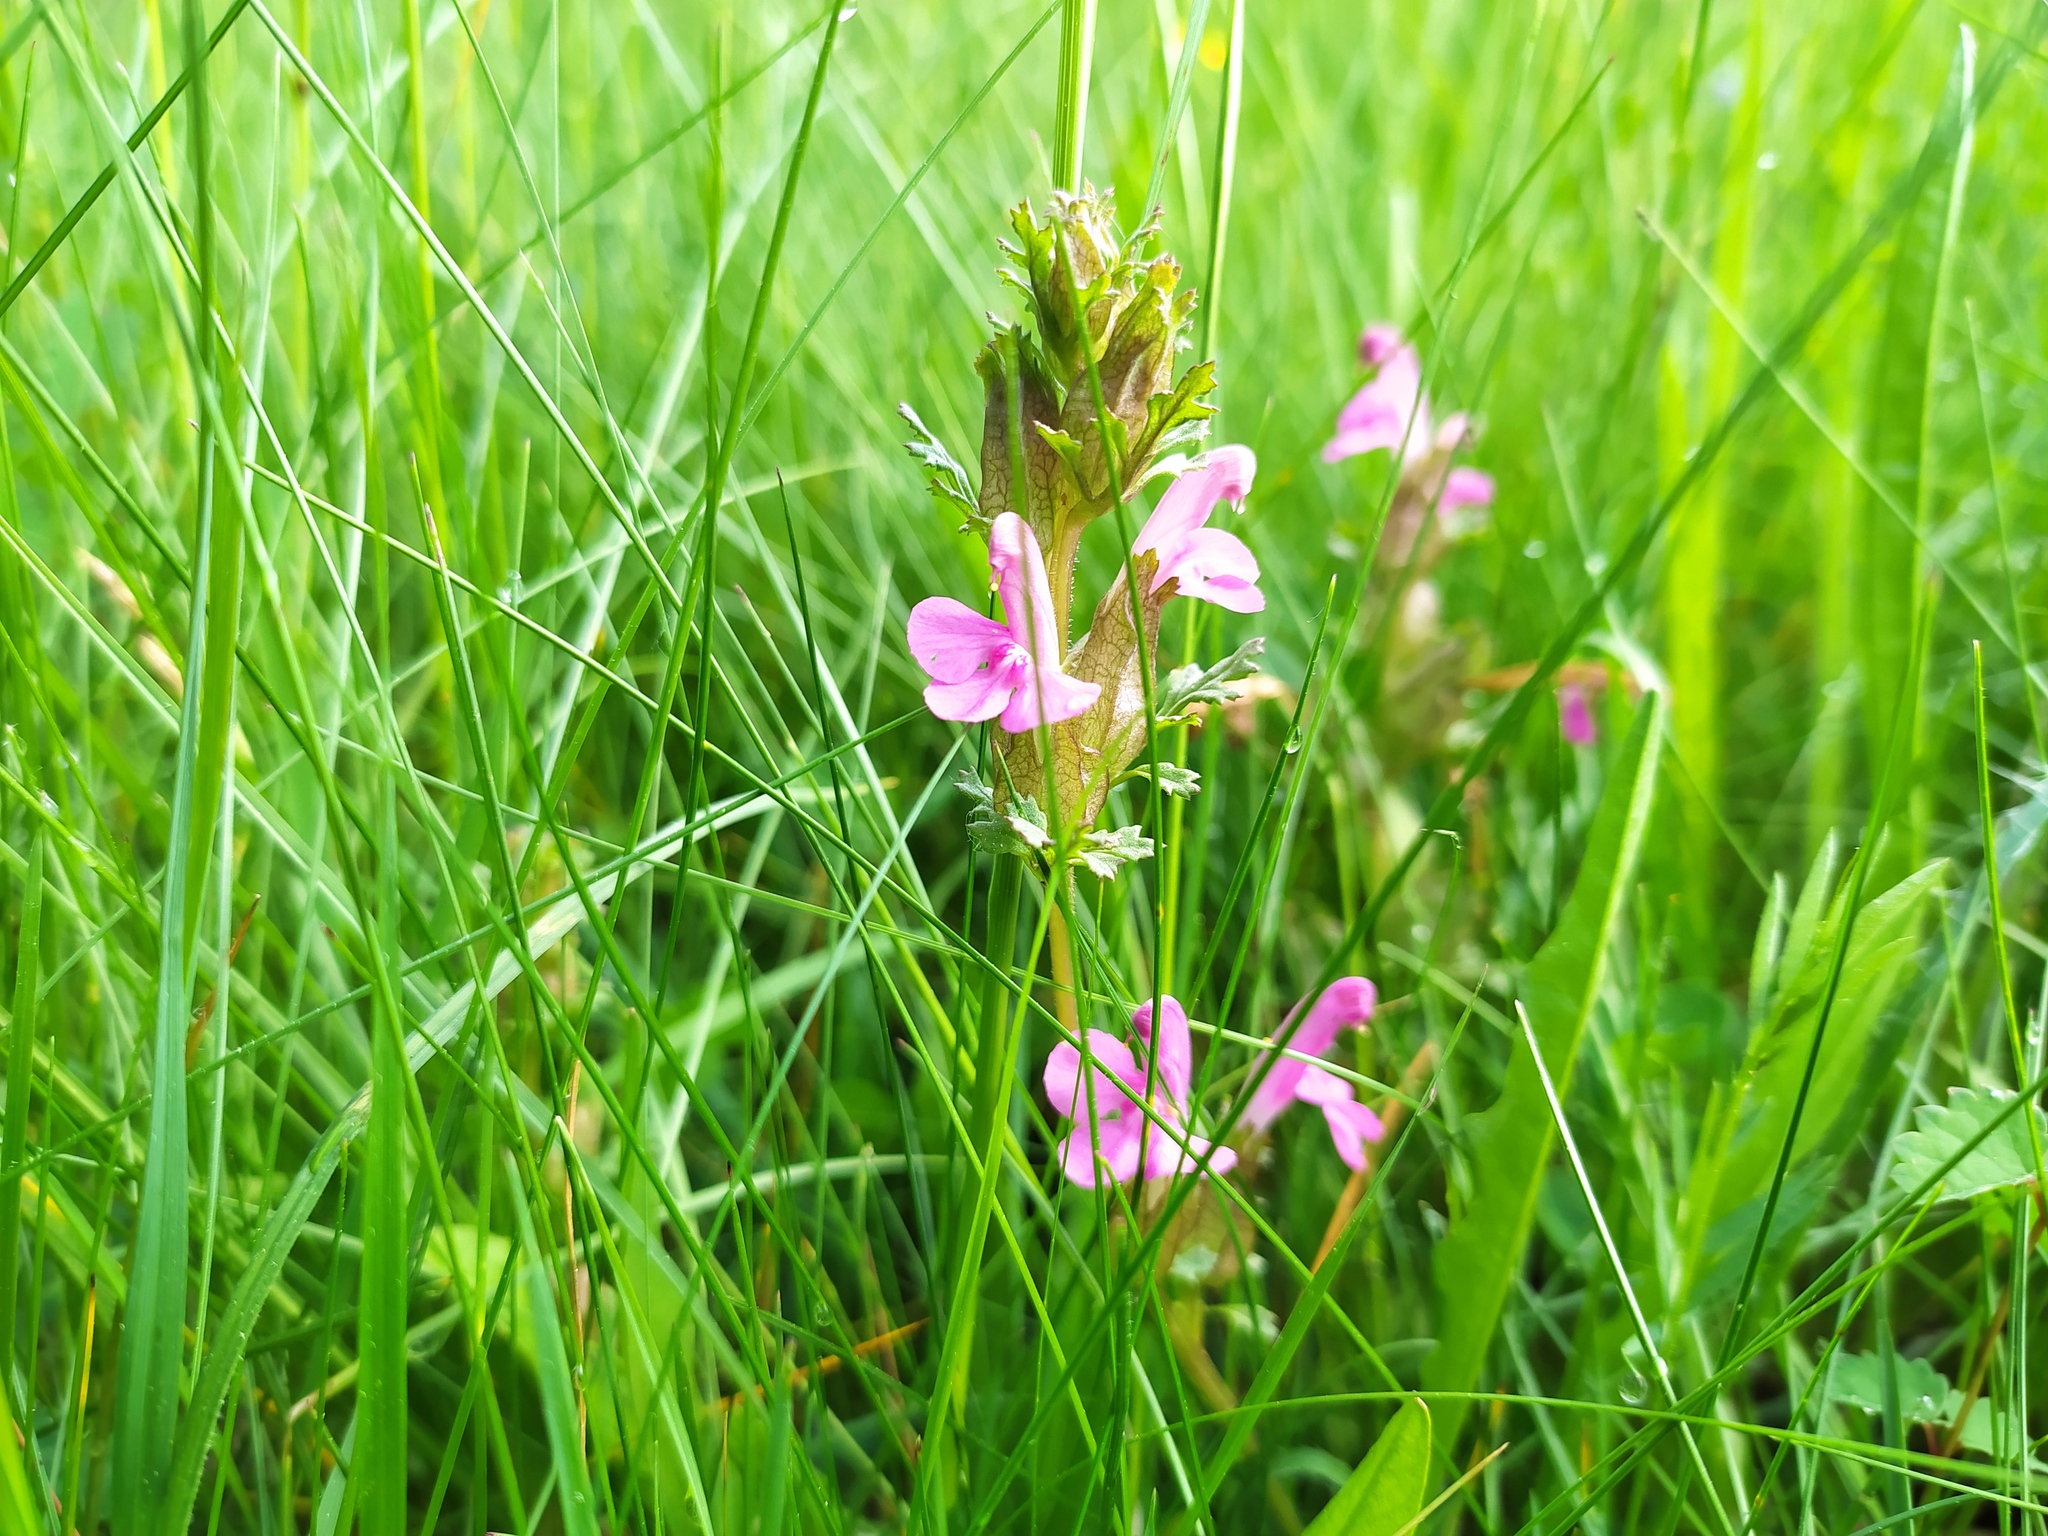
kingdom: Plantae
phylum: Tracheophyta
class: Magnoliopsida
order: Lamiales
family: Orobanchaceae
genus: Pedicularis
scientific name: Pedicularis sylvatica
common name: Lousewort
